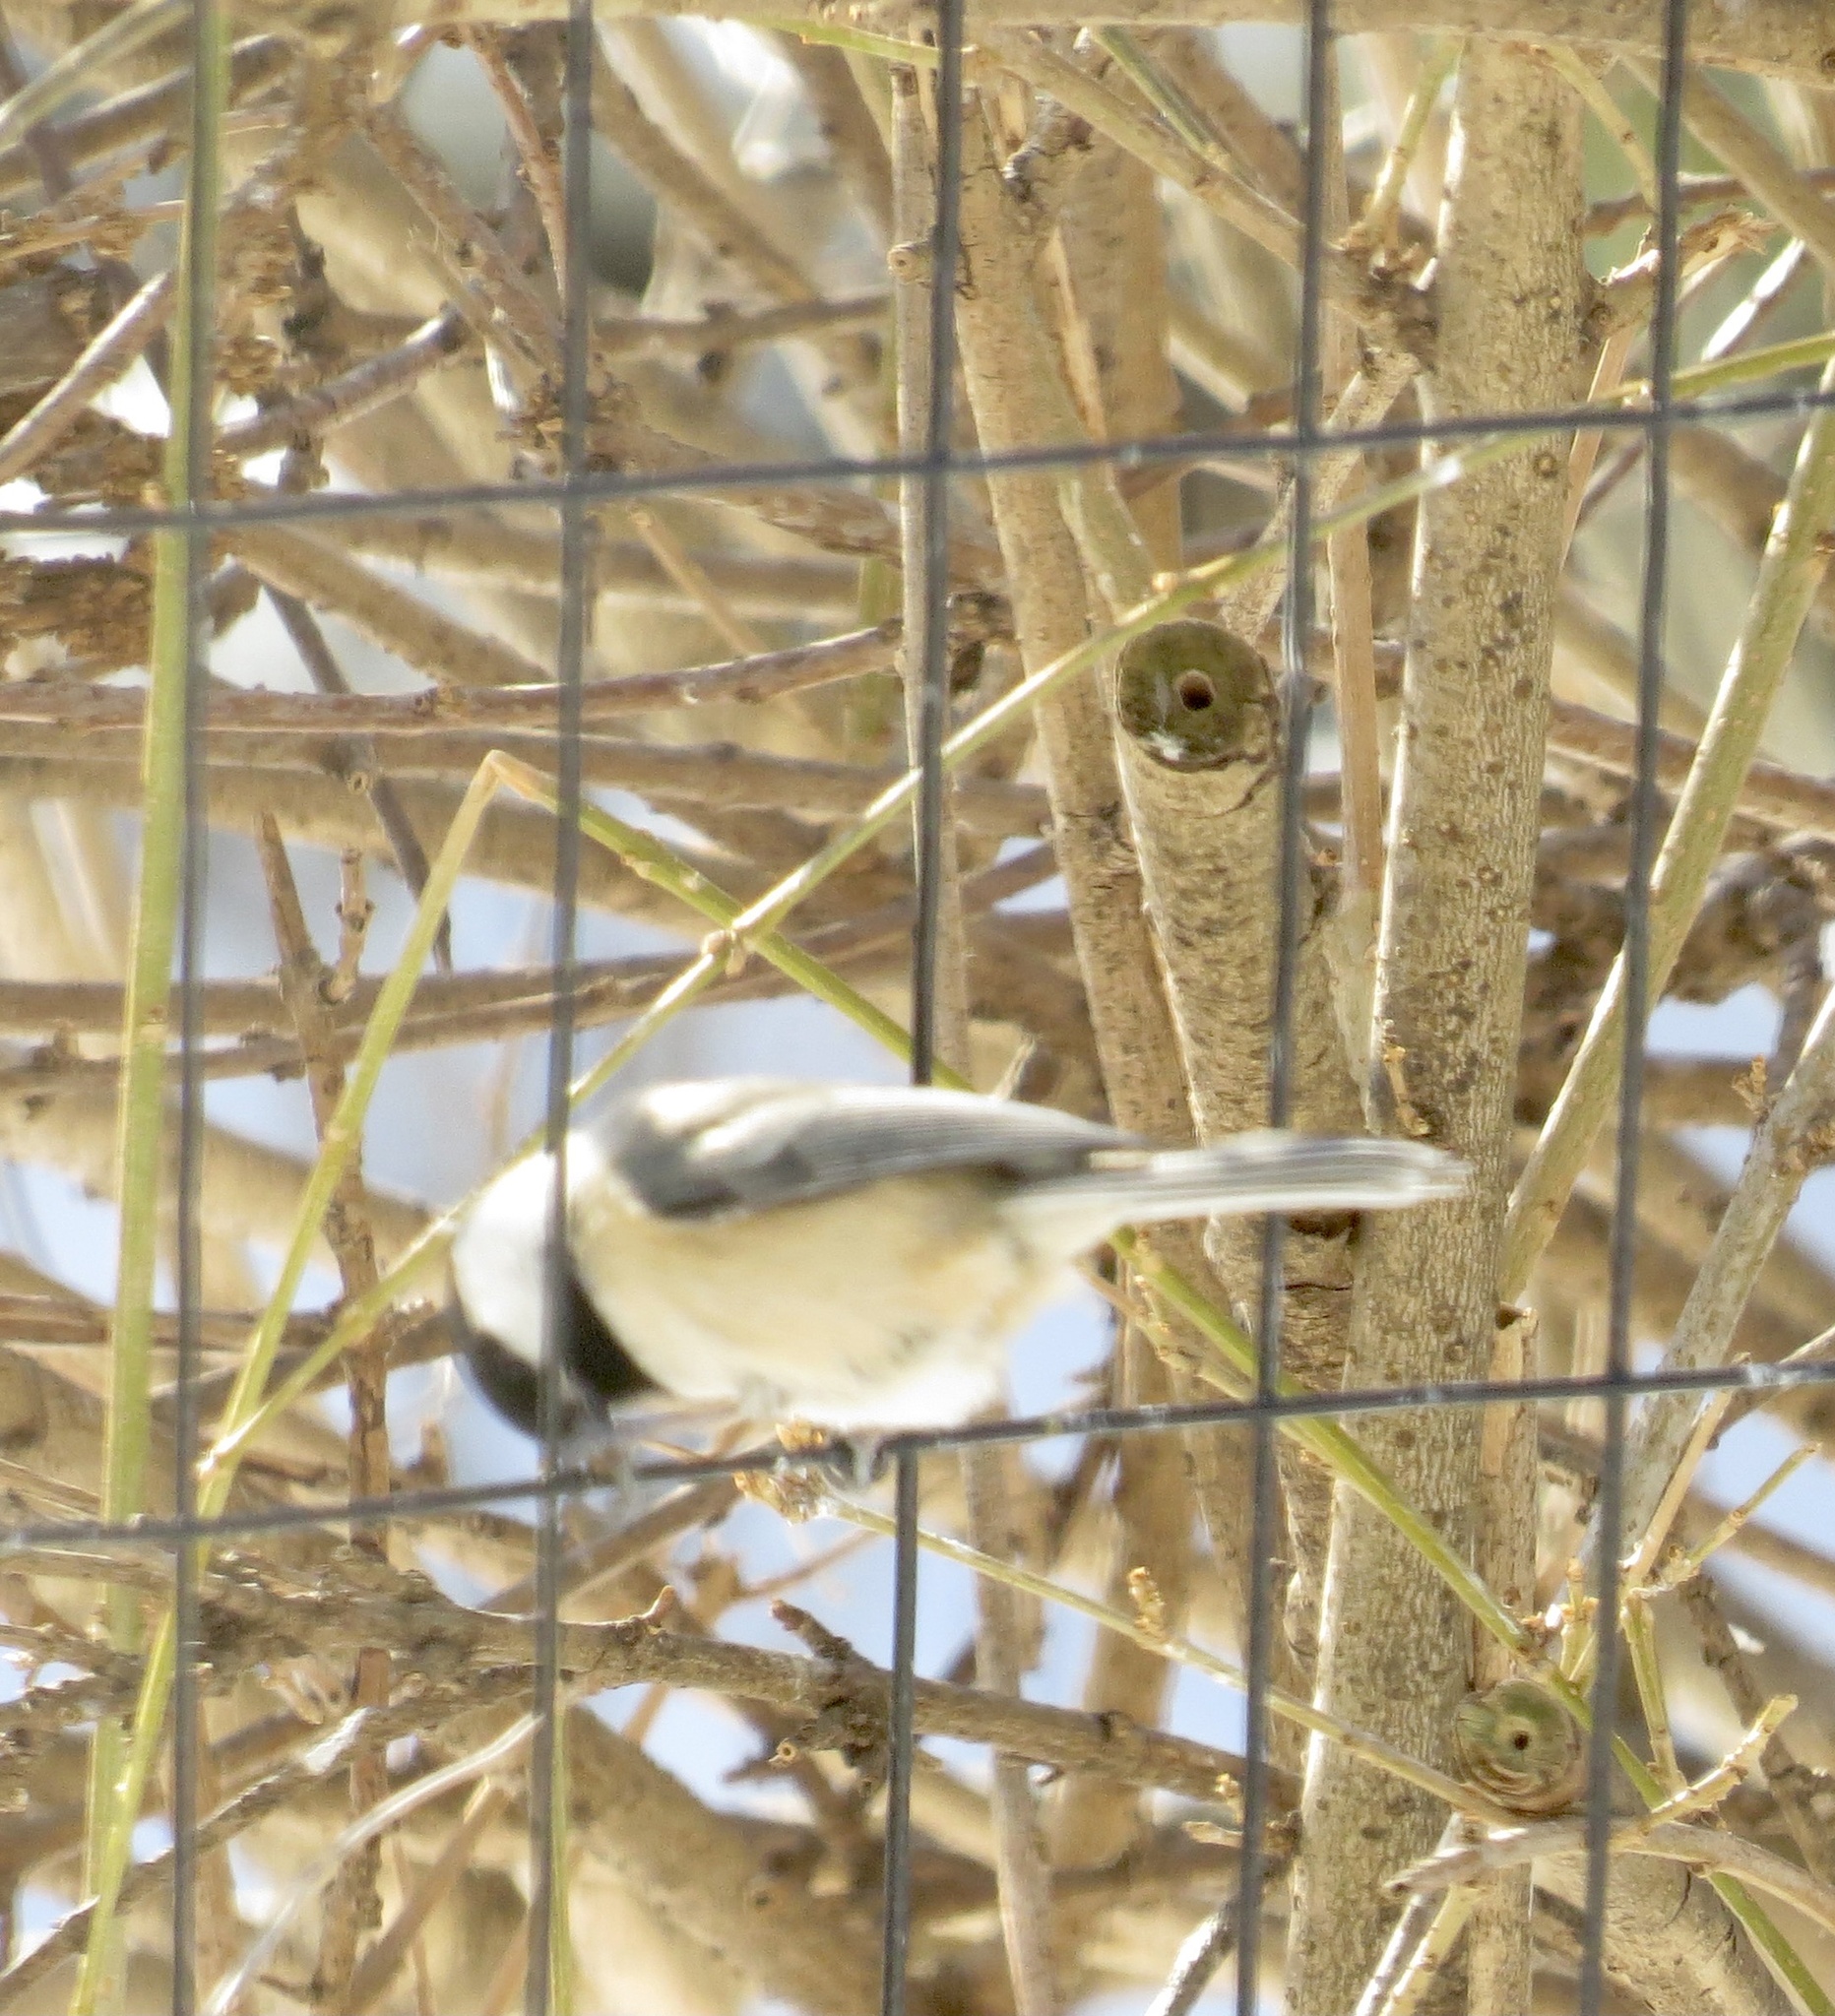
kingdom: Animalia
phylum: Chordata
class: Aves
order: Passeriformes
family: Paridae
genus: Poecile
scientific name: Poecile atricapillus
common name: Black-capped chickadee
